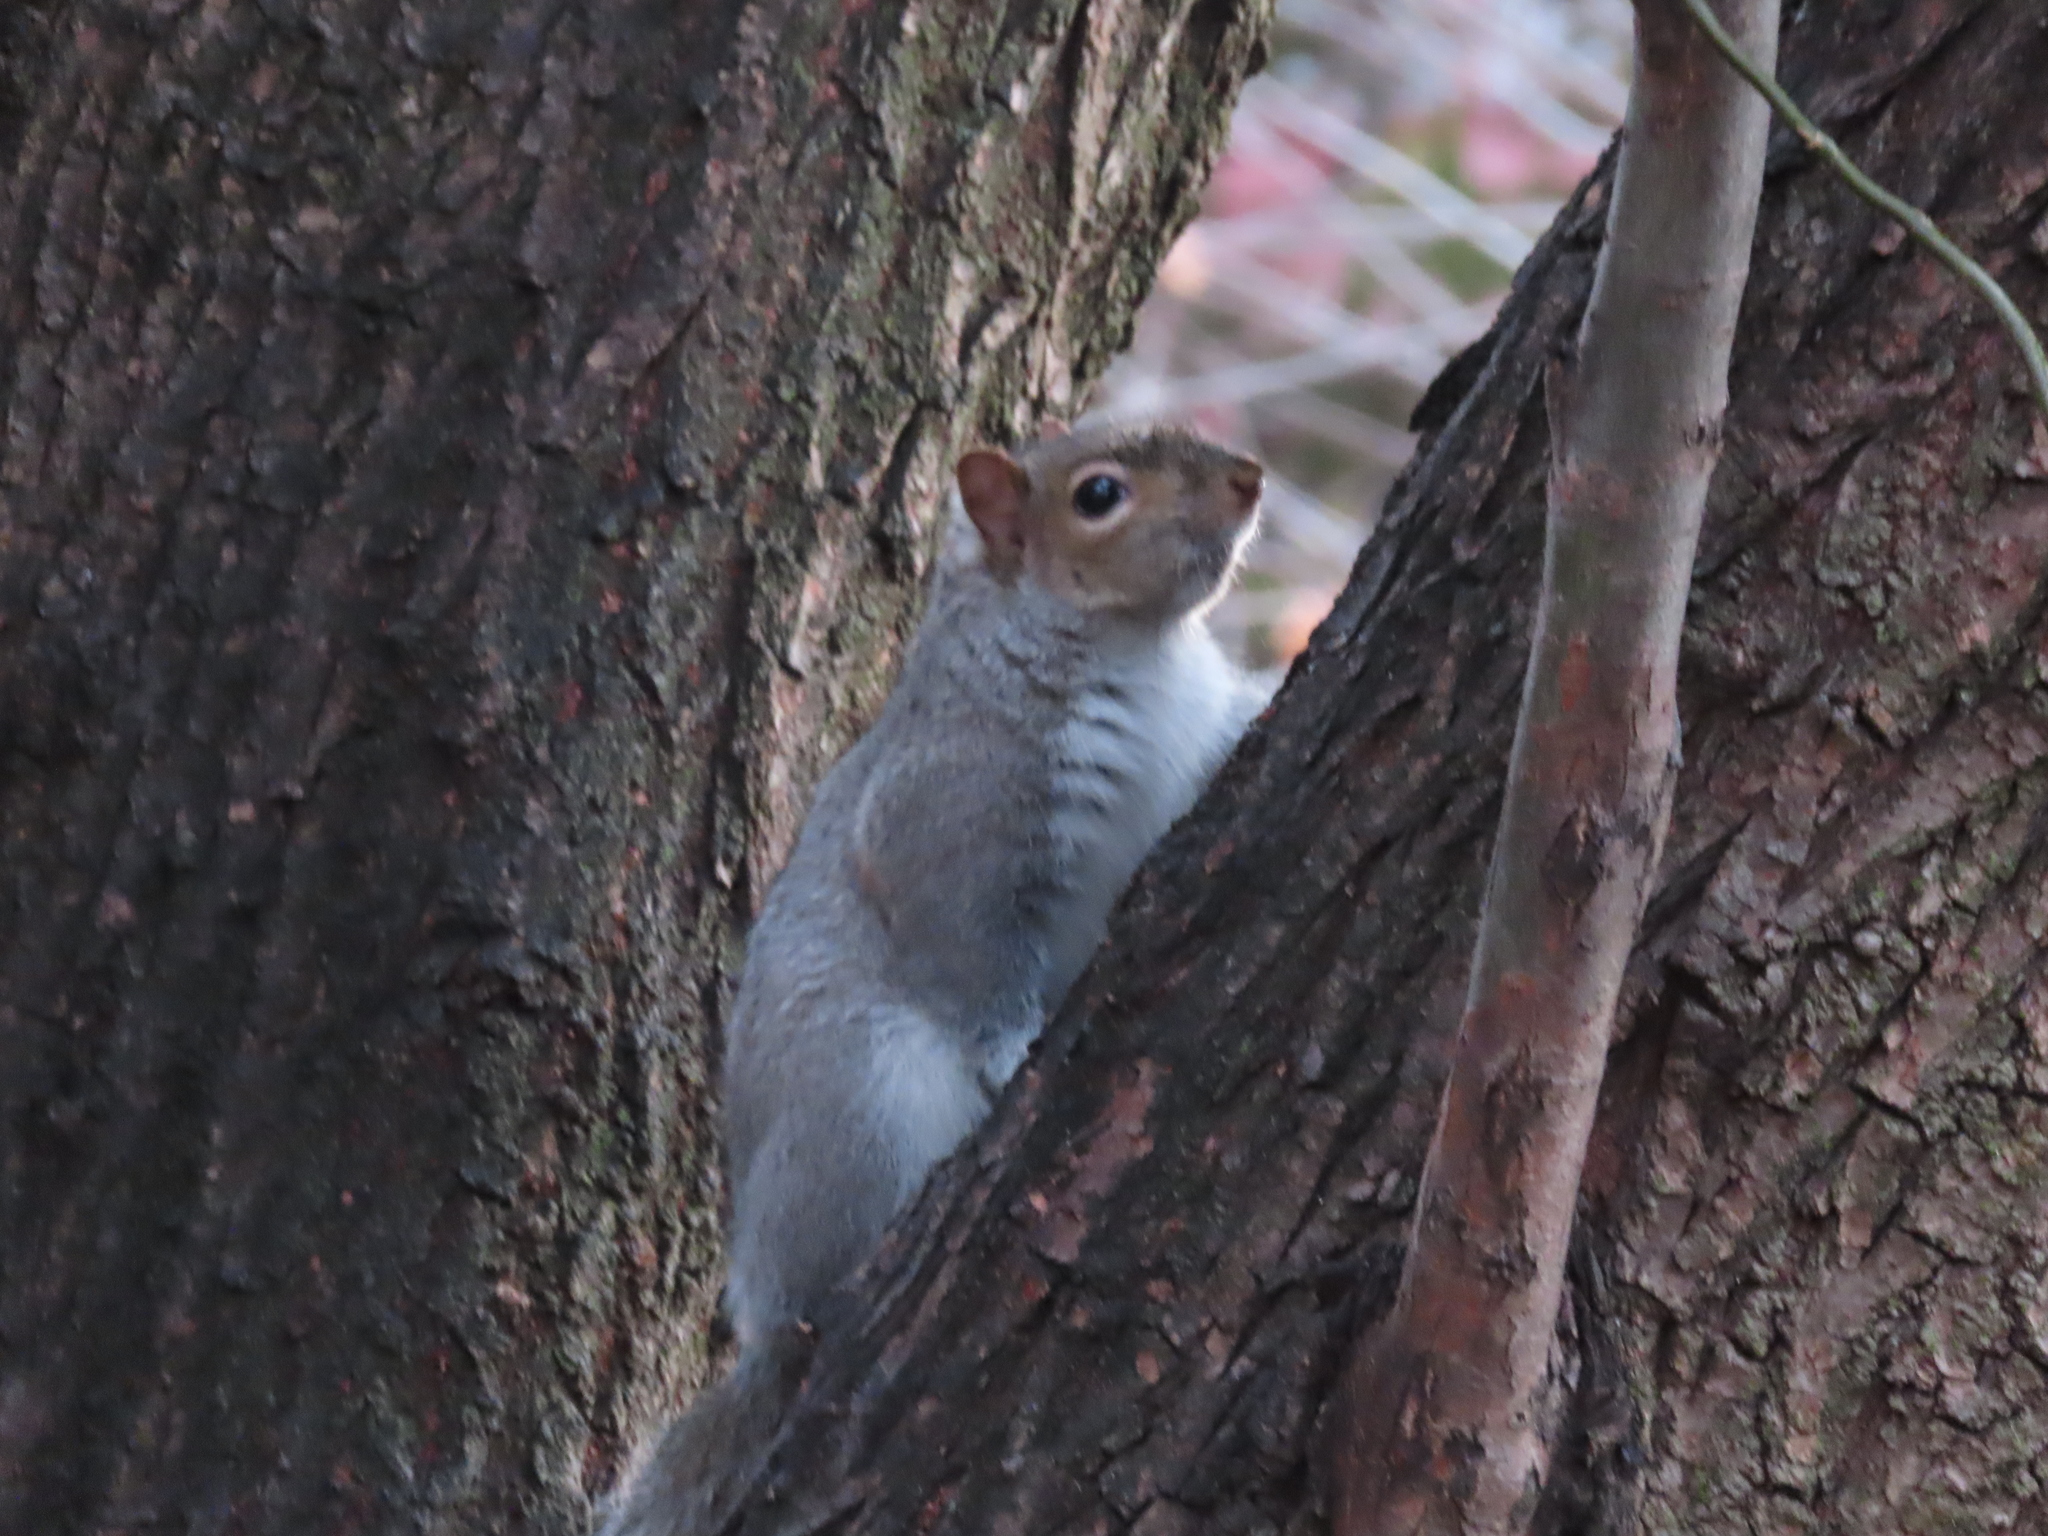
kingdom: Animalia
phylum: Chordata
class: Mammalia
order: Rodentia
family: Sciuridae
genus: Sciurus
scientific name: Sciurus carolinensis
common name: Eastern gray squirrel
